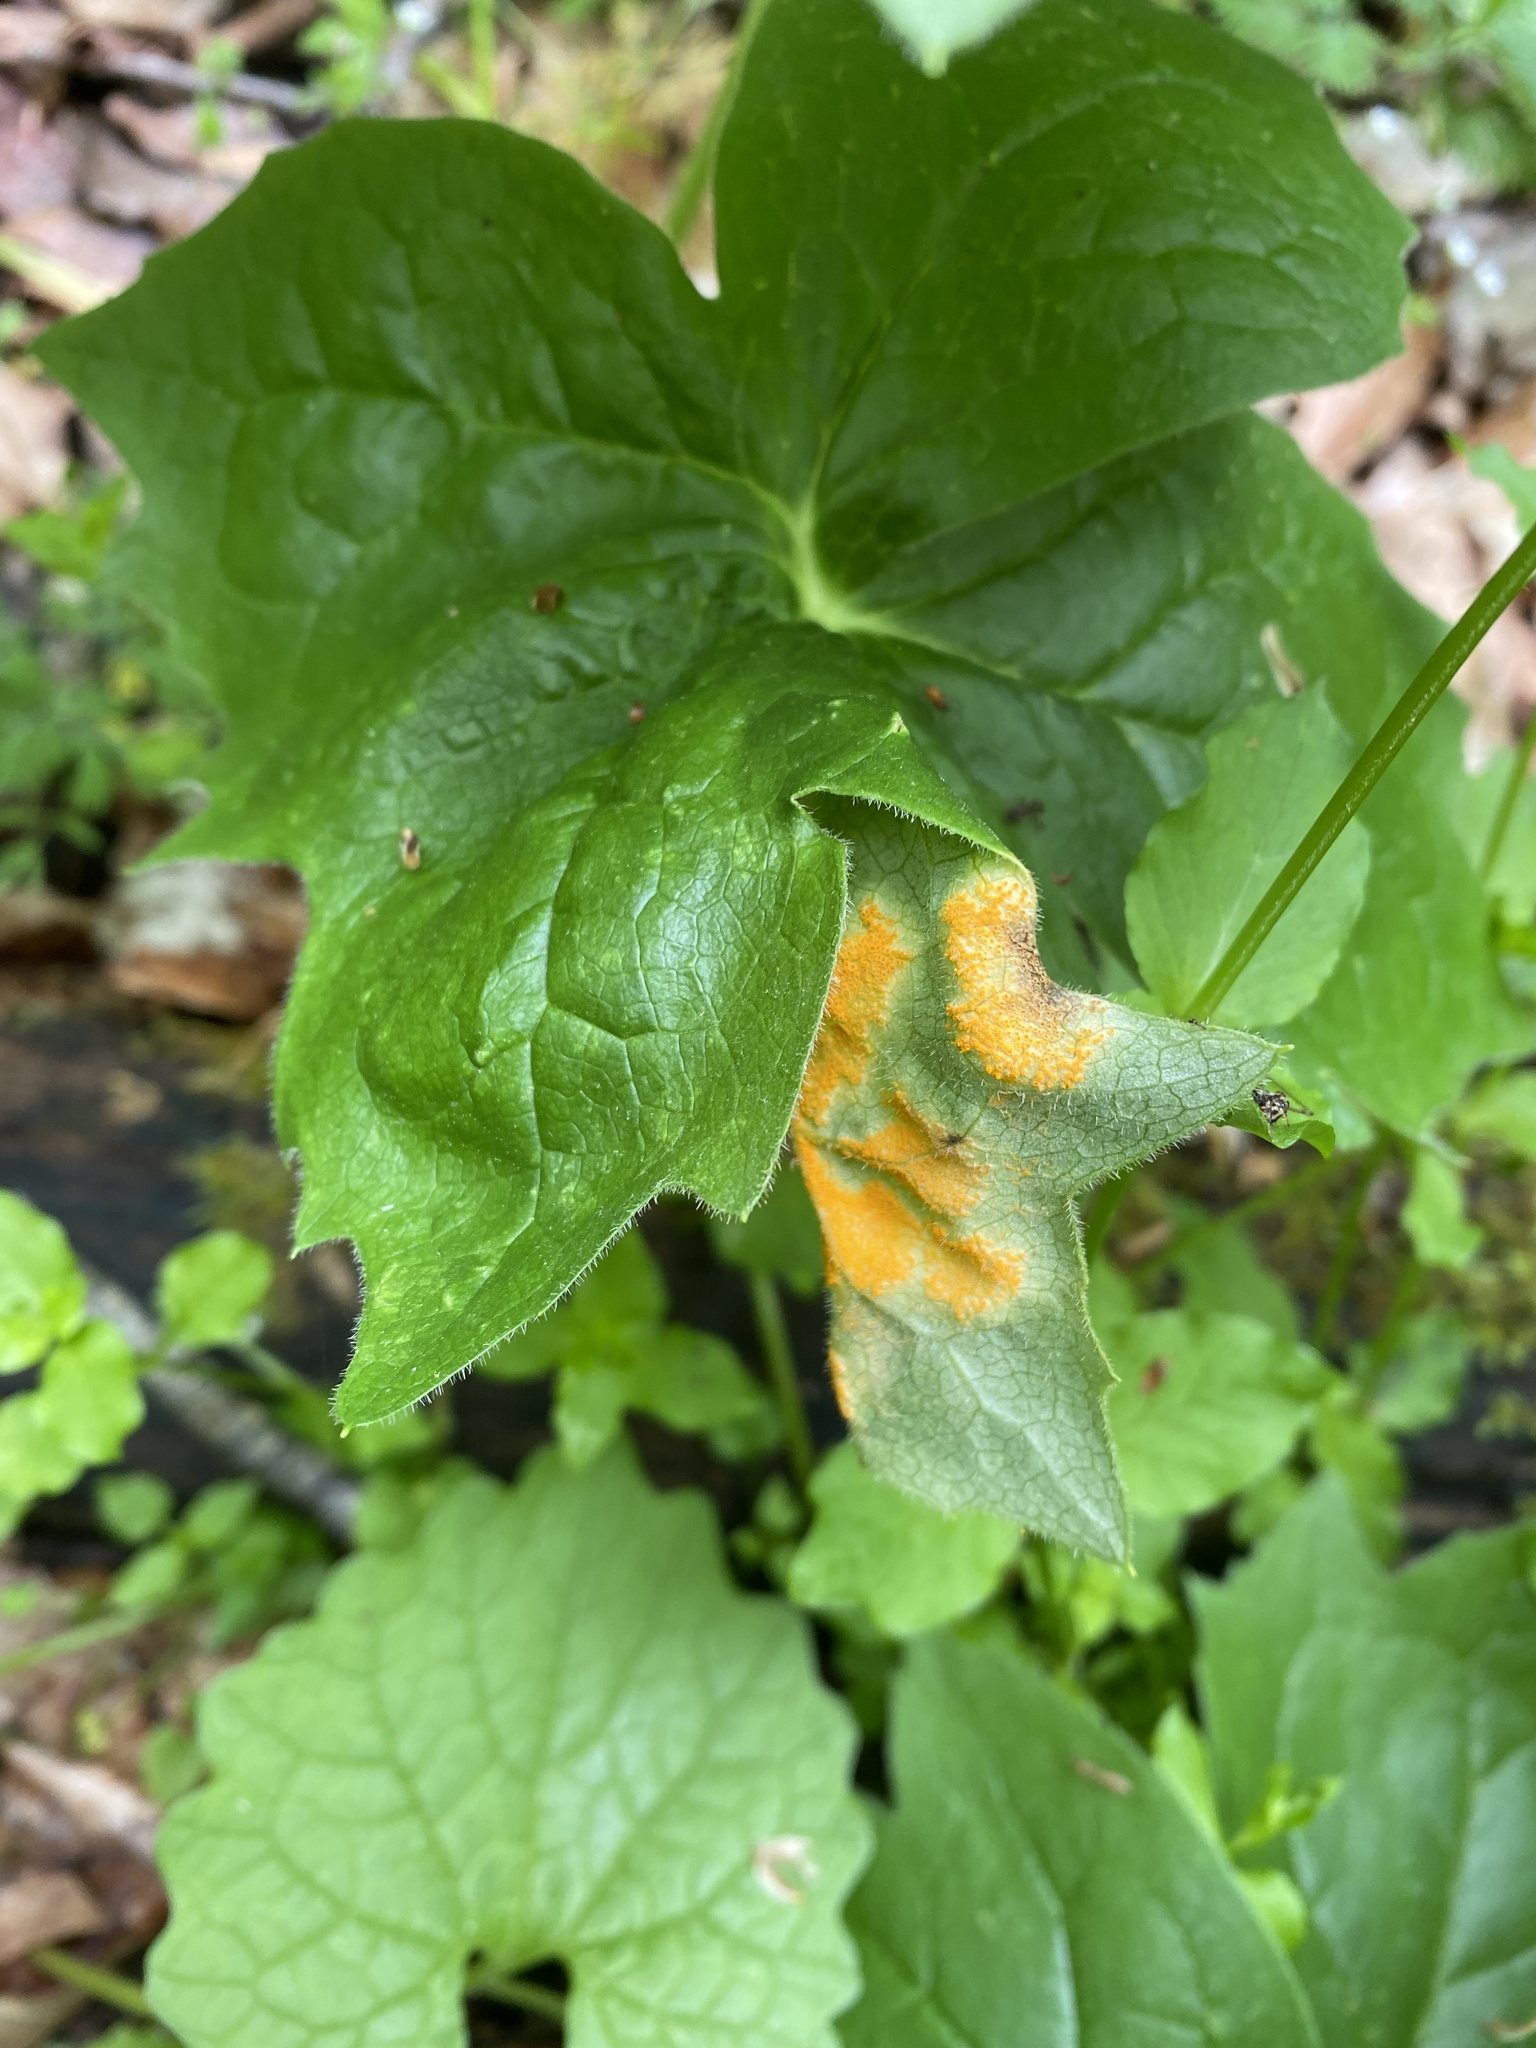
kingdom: Fungi
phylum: Basidiomycota
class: Pucciniomycetes
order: Pucciniales
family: Pucciniaceae
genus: Puccinia
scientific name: Puccinia podophylli
